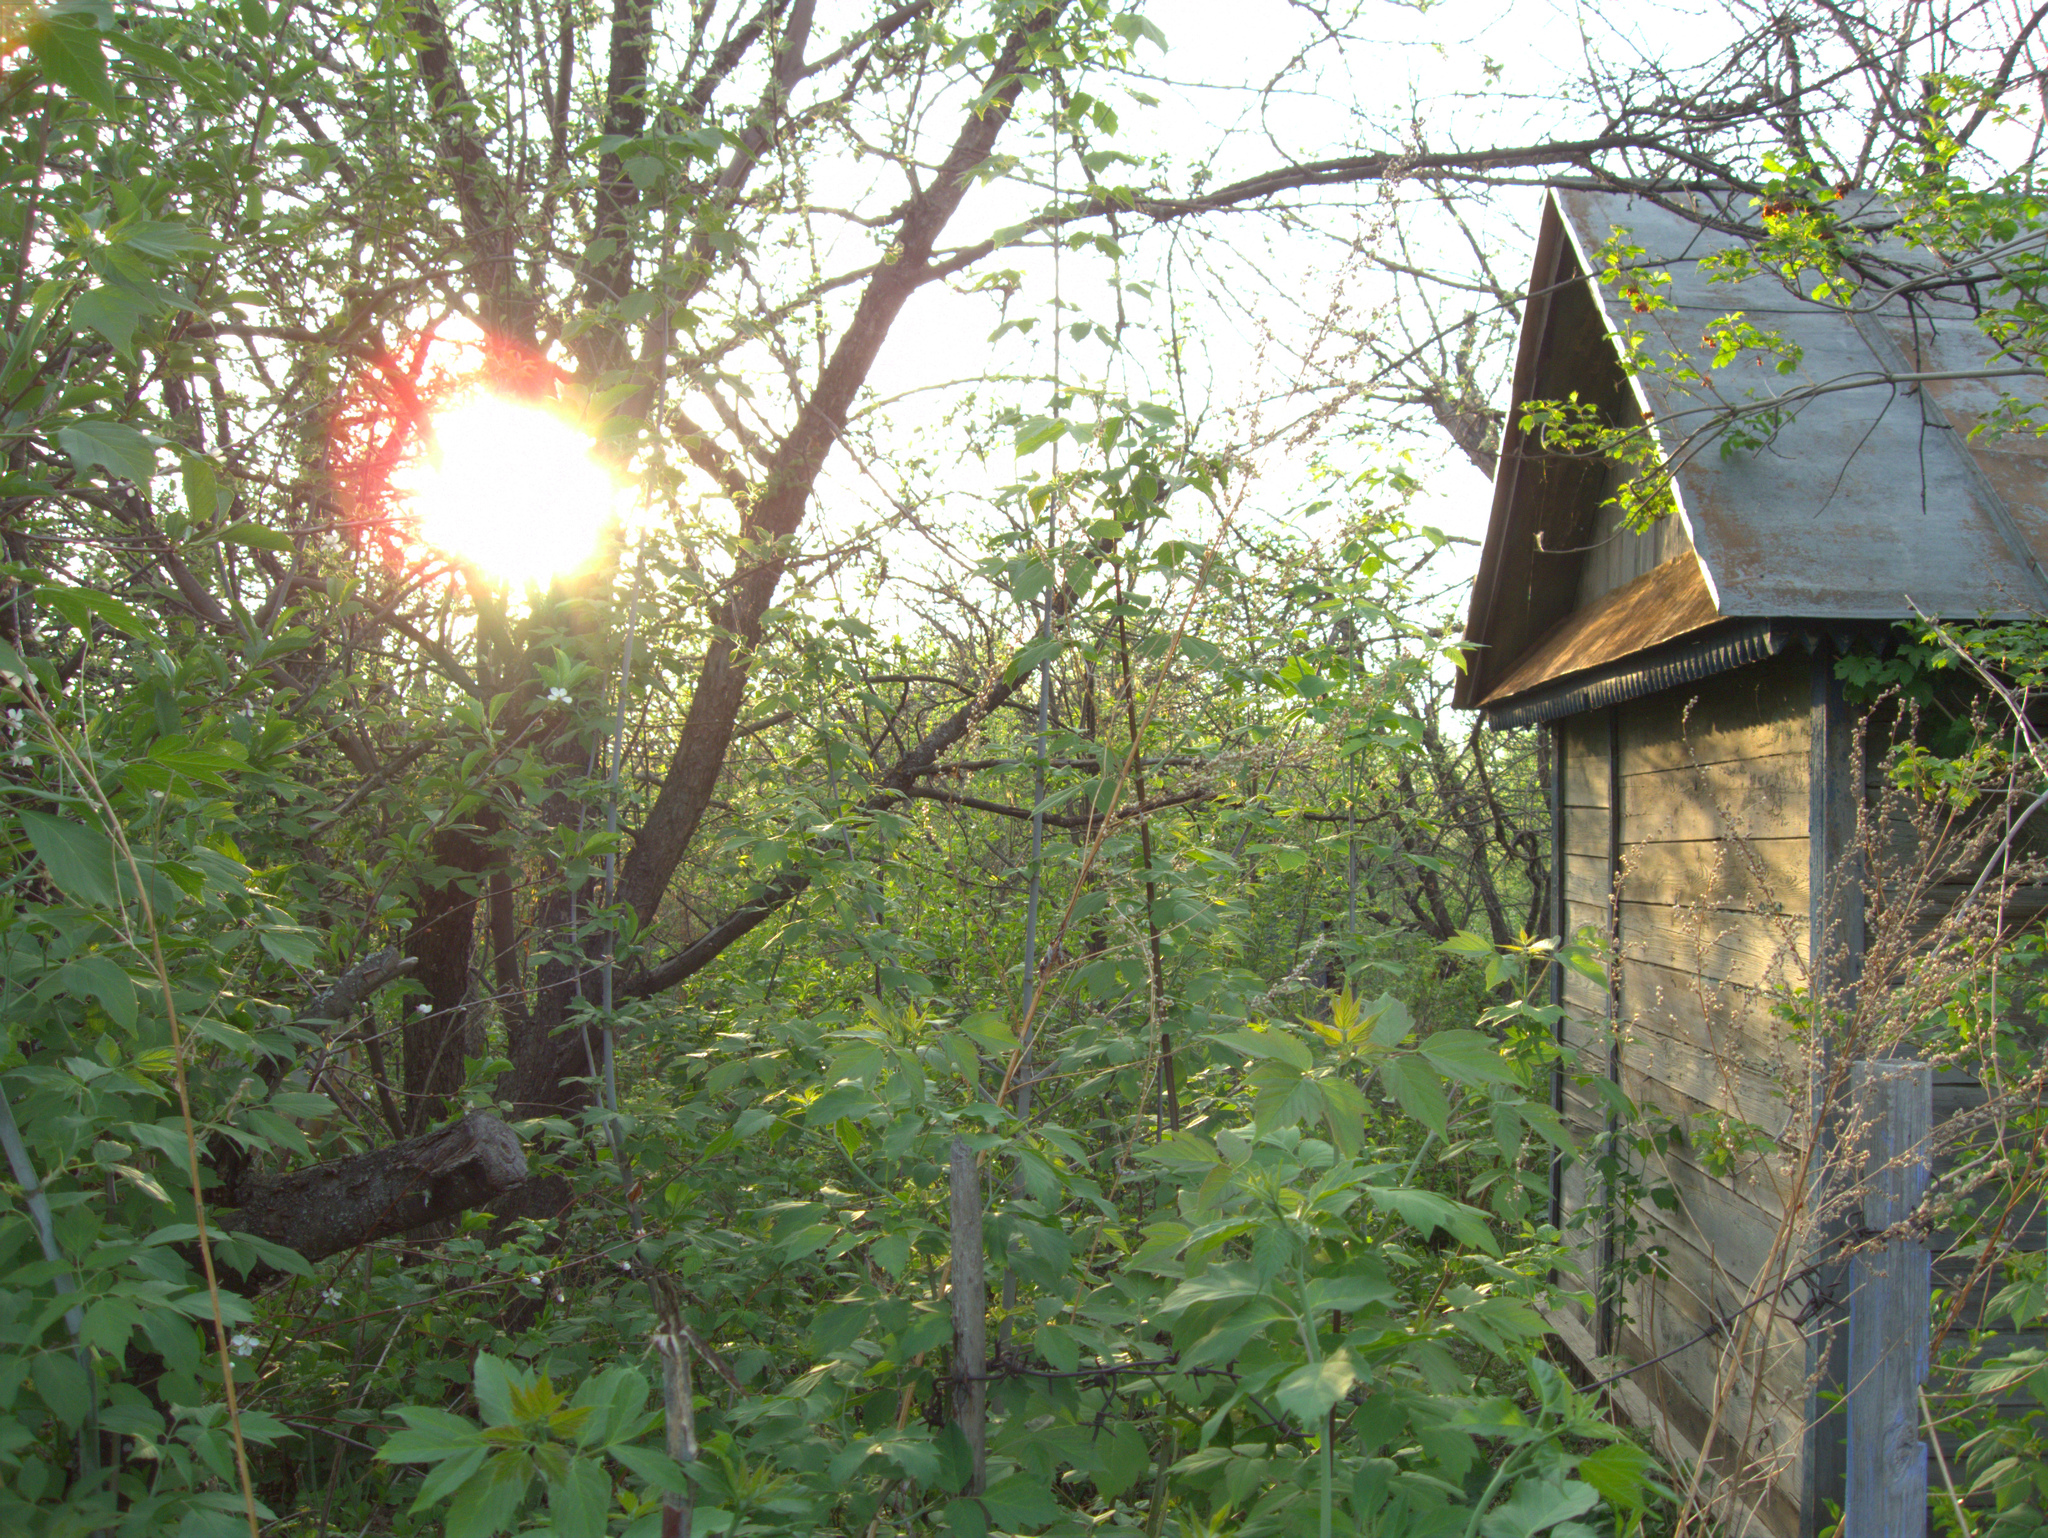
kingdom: Plantae
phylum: Tracheophyta
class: Magnoliopsida
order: Sapindales
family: Sapindaceae
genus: Acer
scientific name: Acer negundo
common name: Ashleaf maple
